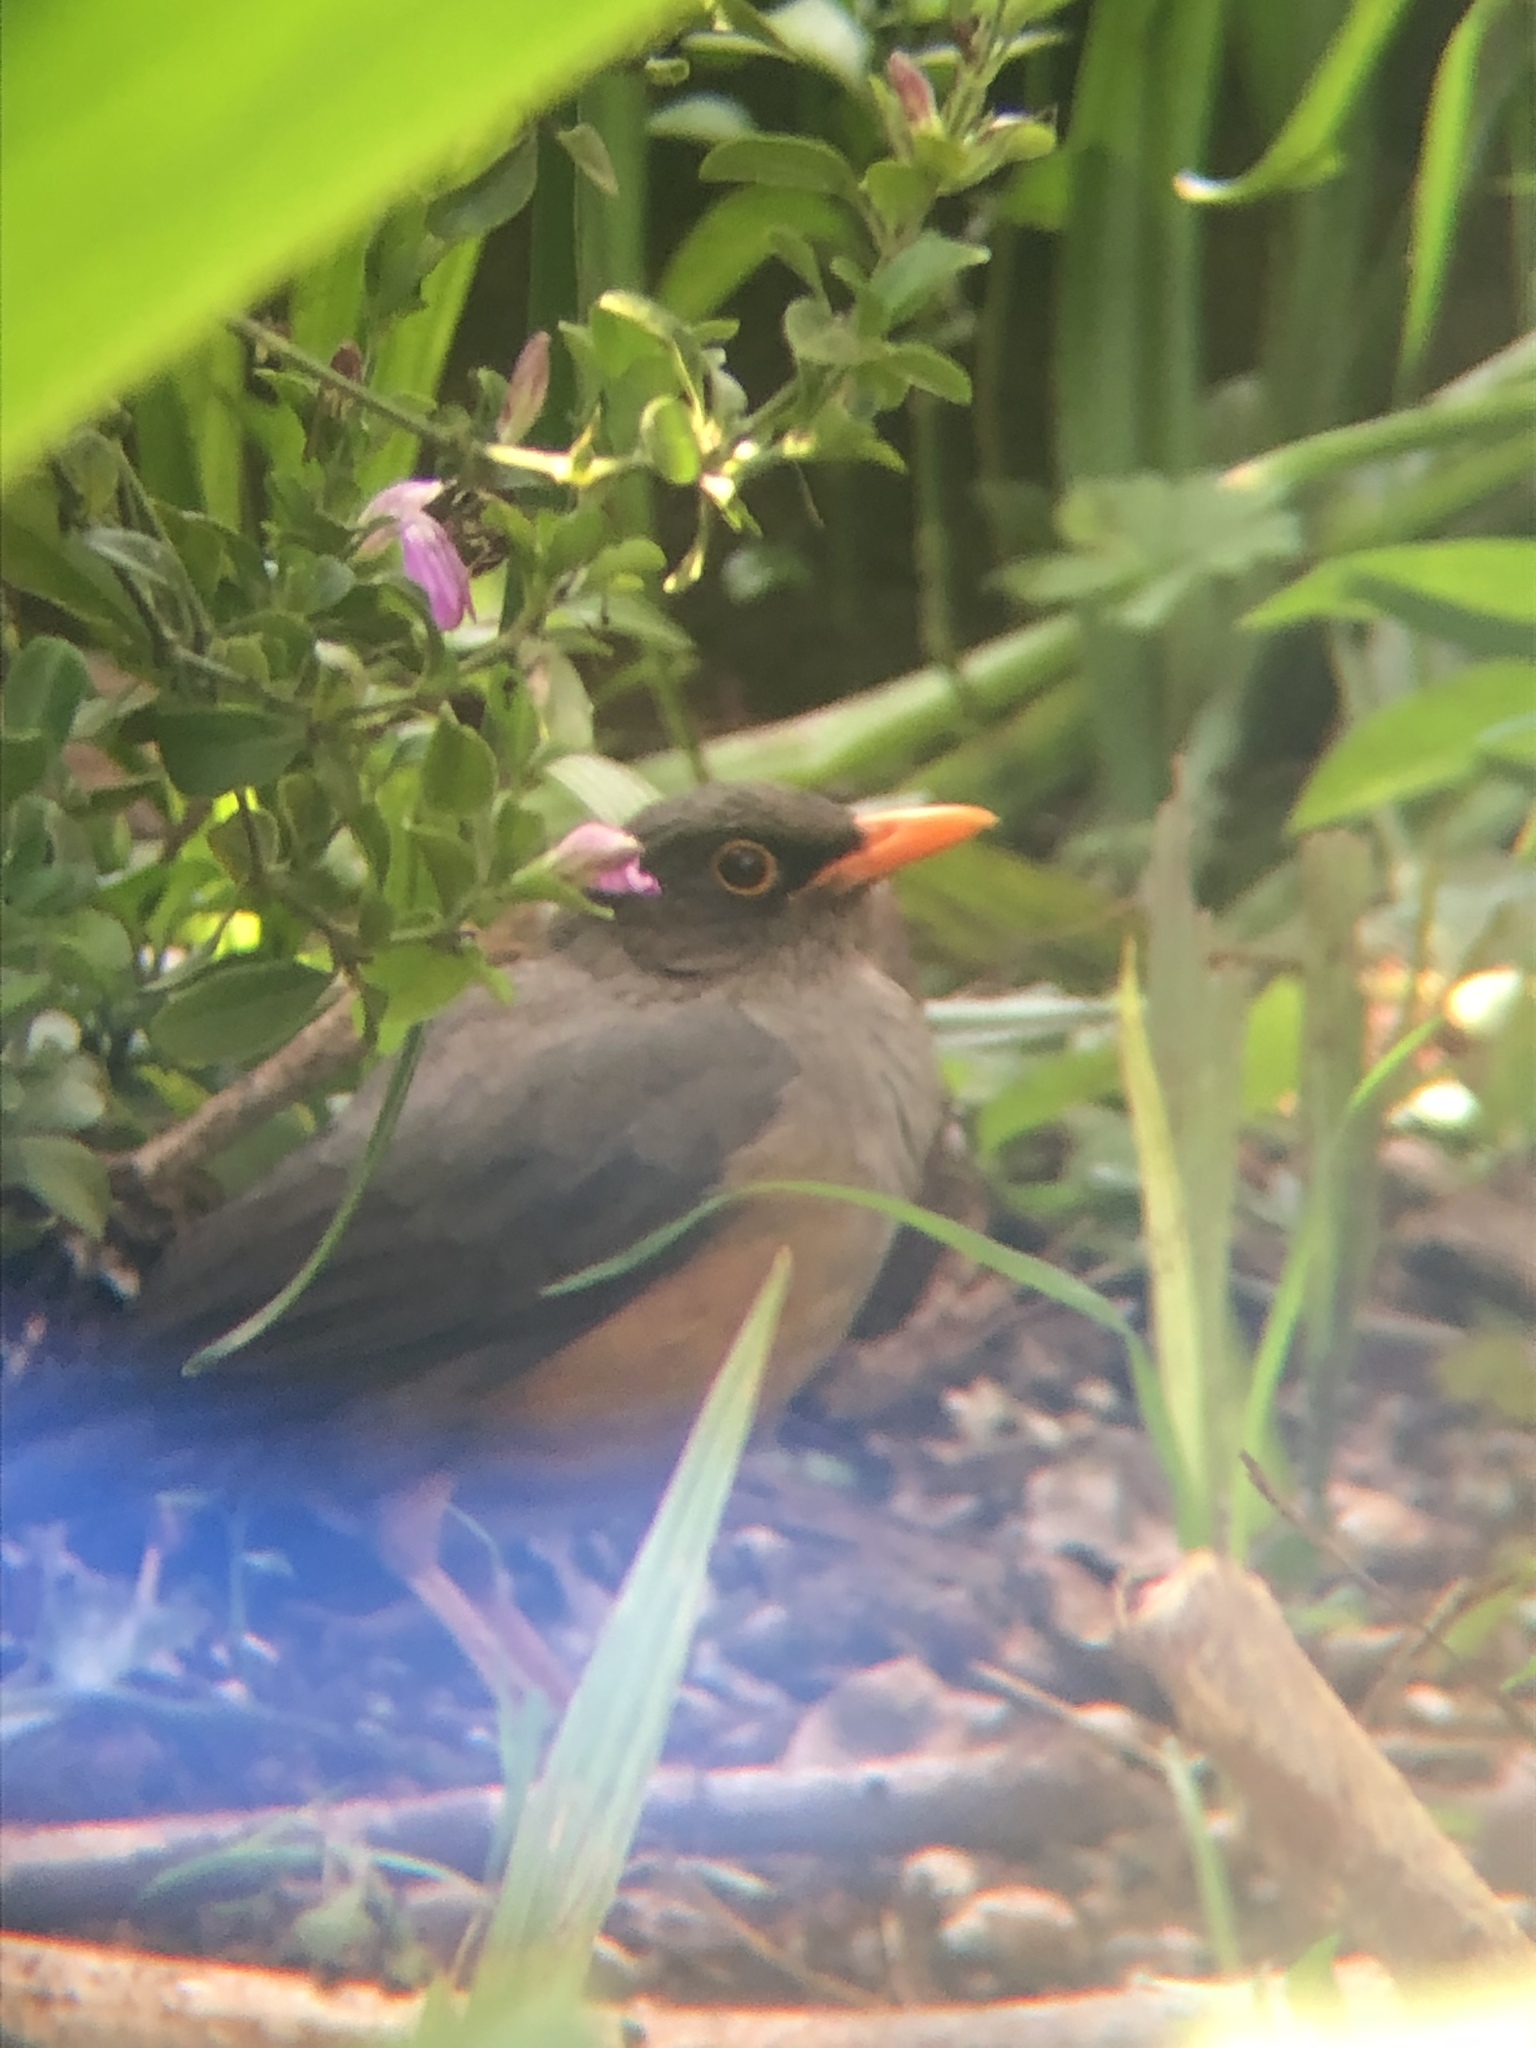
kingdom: Animalia
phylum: Chordata
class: Aves
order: Passeriformes
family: Turdidae
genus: Turdus
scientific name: Turdus abyssinicus
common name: Abyssinian thrush
